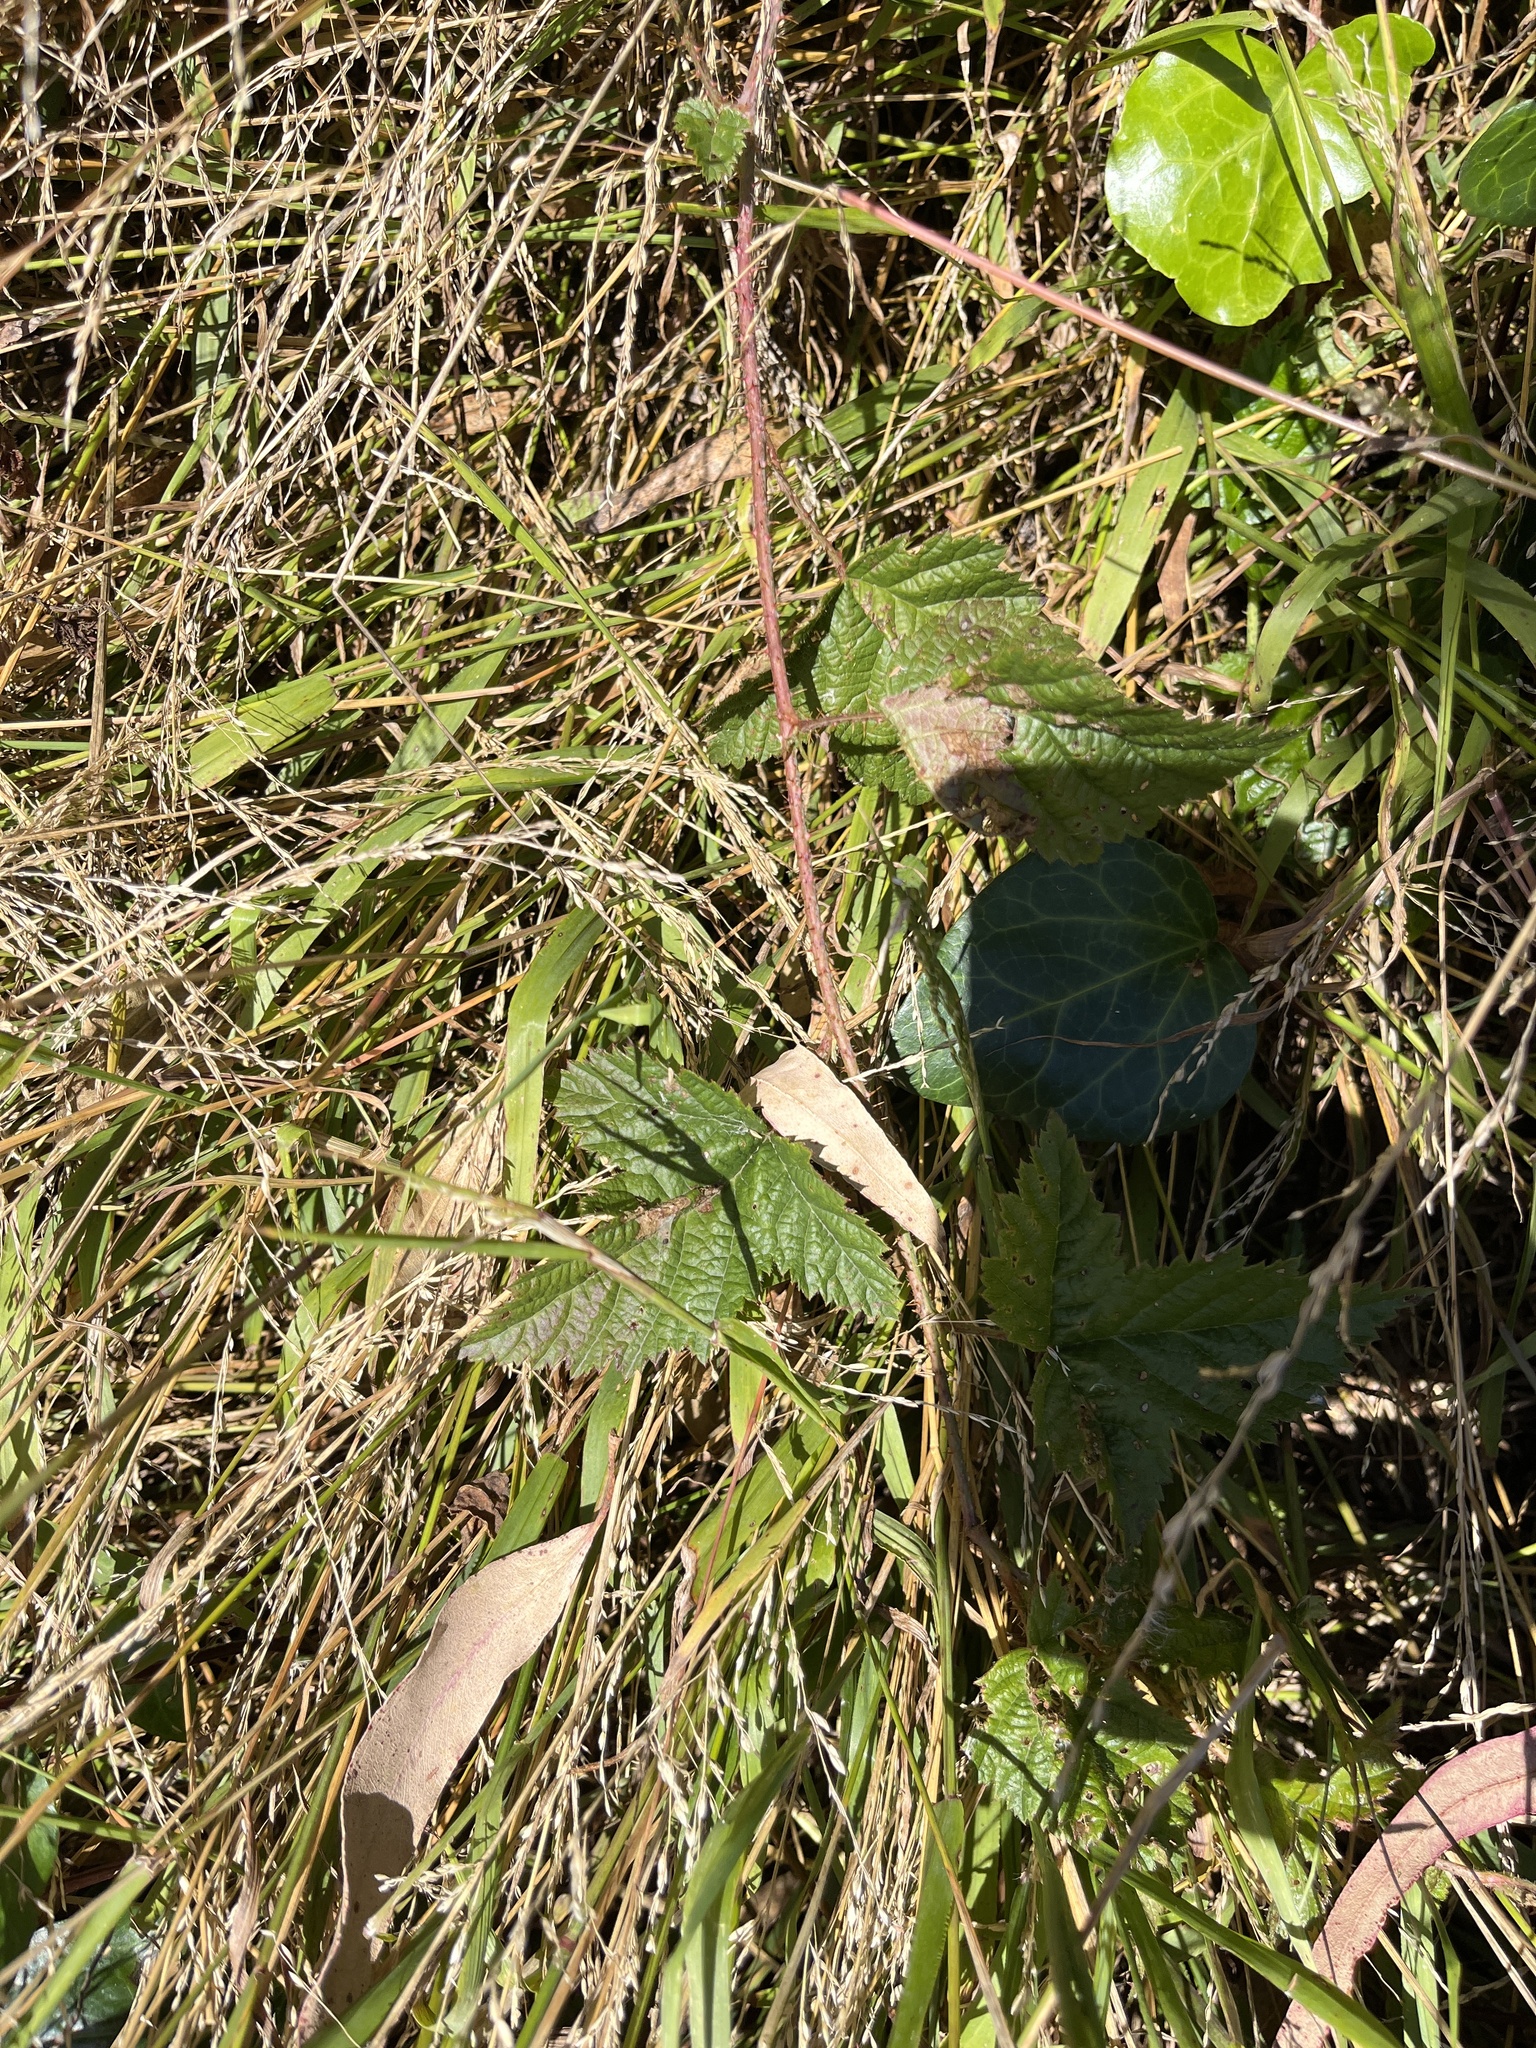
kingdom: Plantae
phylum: Tracheophyta
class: Magnoliopsida
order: Rosales
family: Rosaceae
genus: Rubus
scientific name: Rubus ursinus
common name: Pacific blackberry
